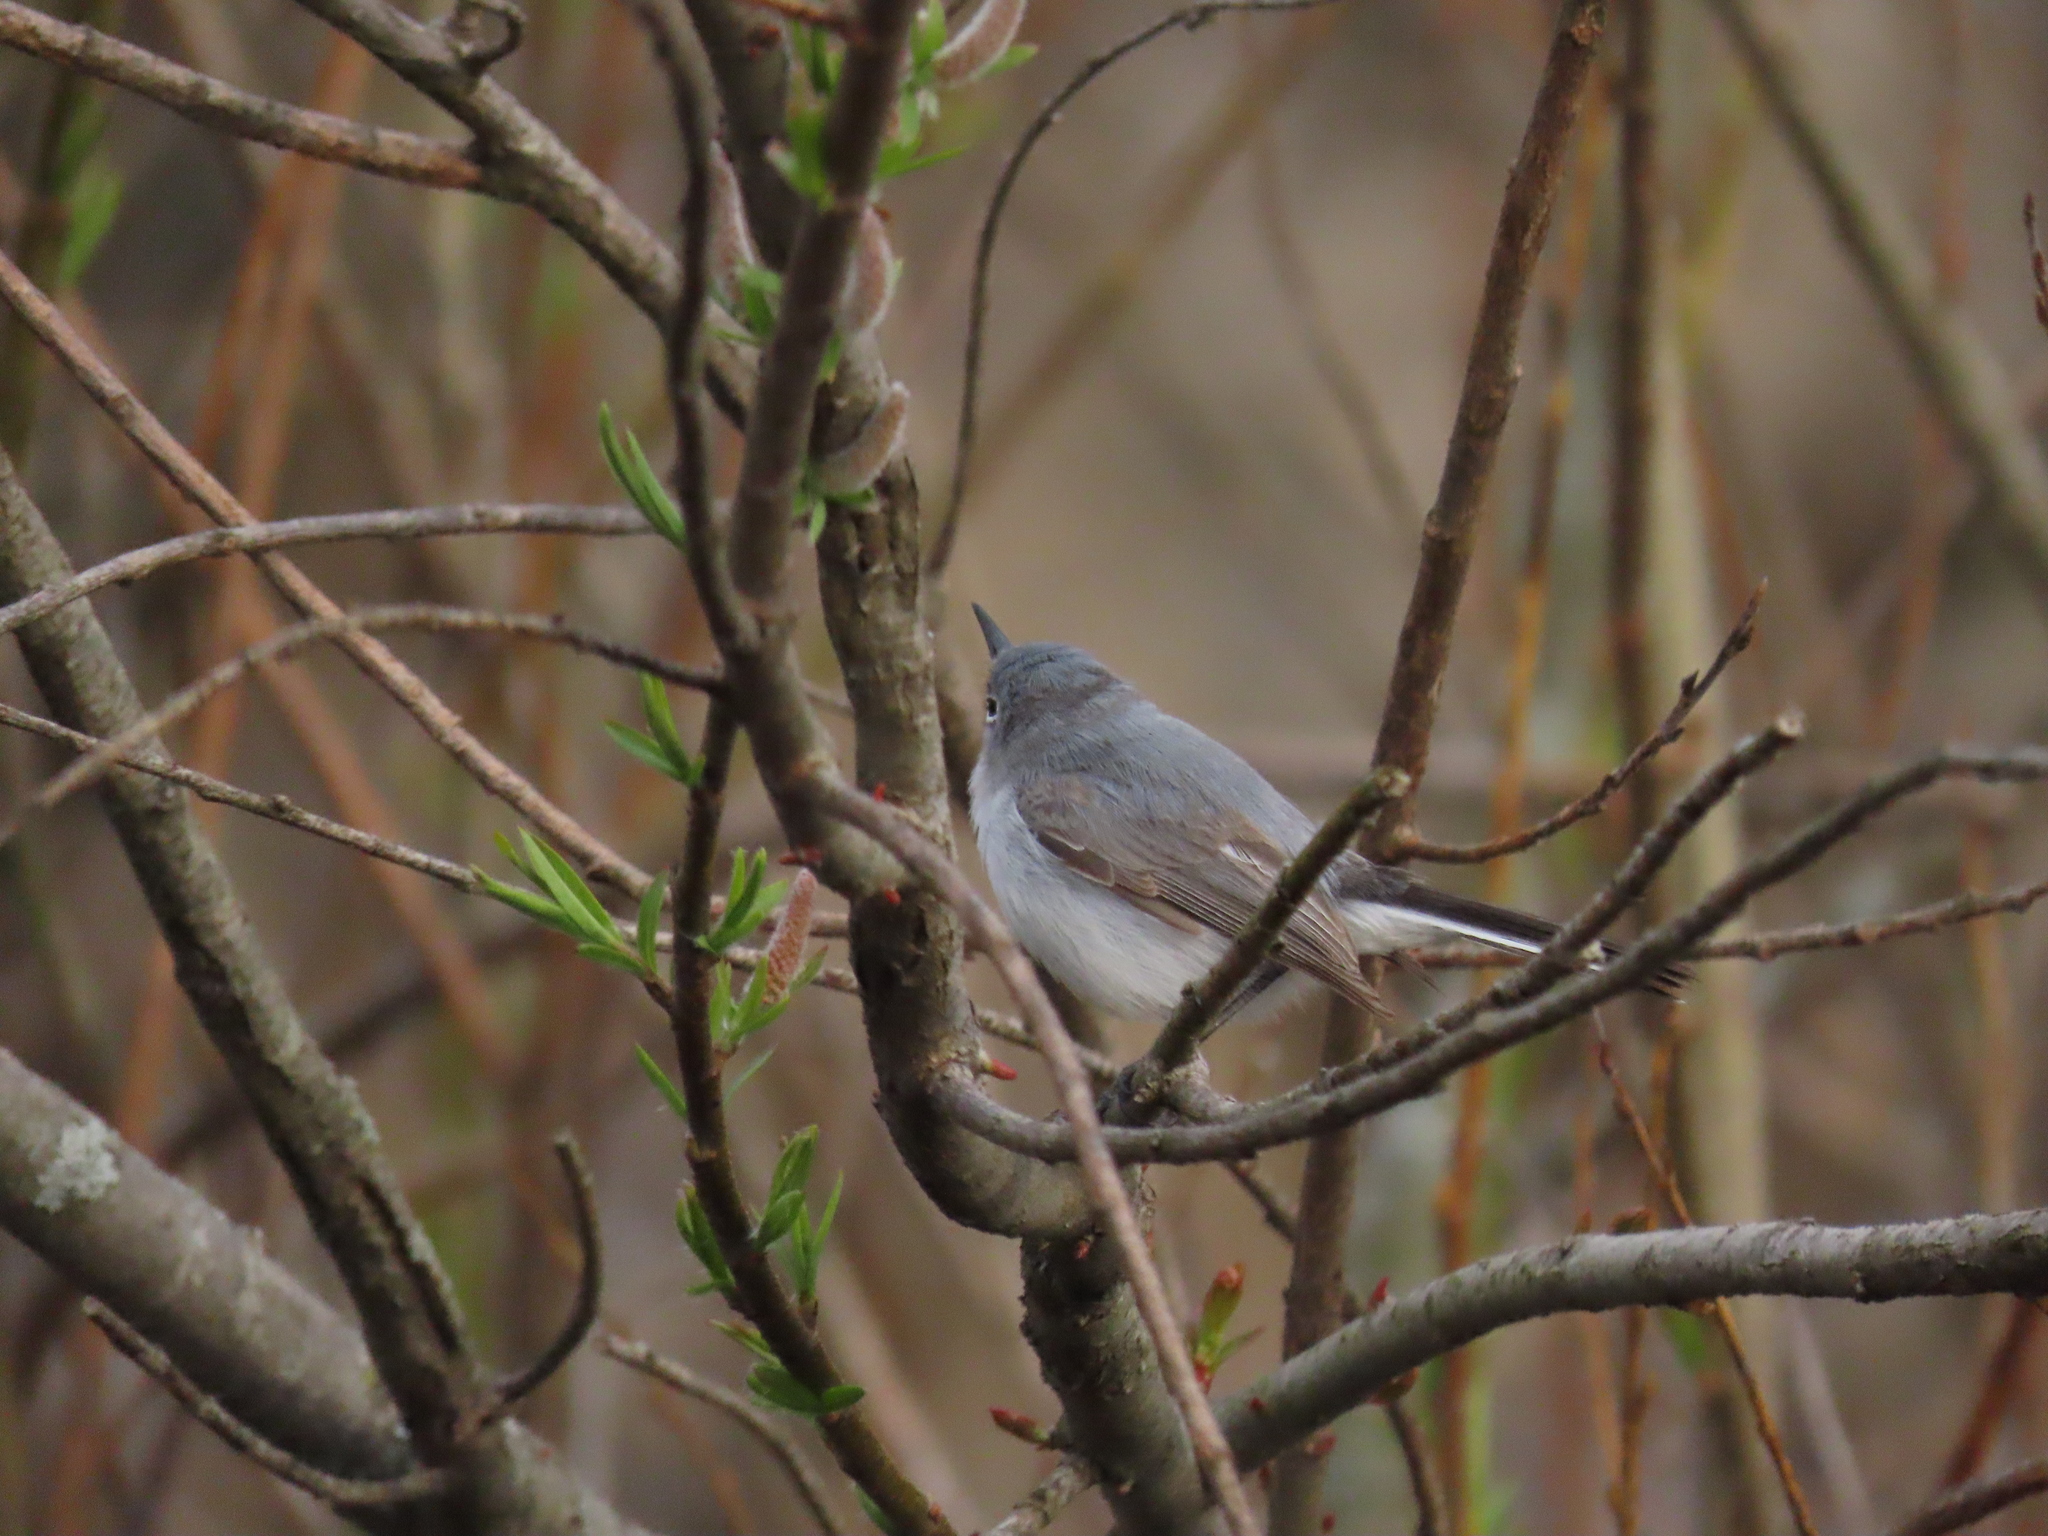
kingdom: Animalia
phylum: Chordata
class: Aves
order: Passeriformes
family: Polioptilidae
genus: Polioptila
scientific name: Polioptila caerulea
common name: Blue-gray gnatcatcher
